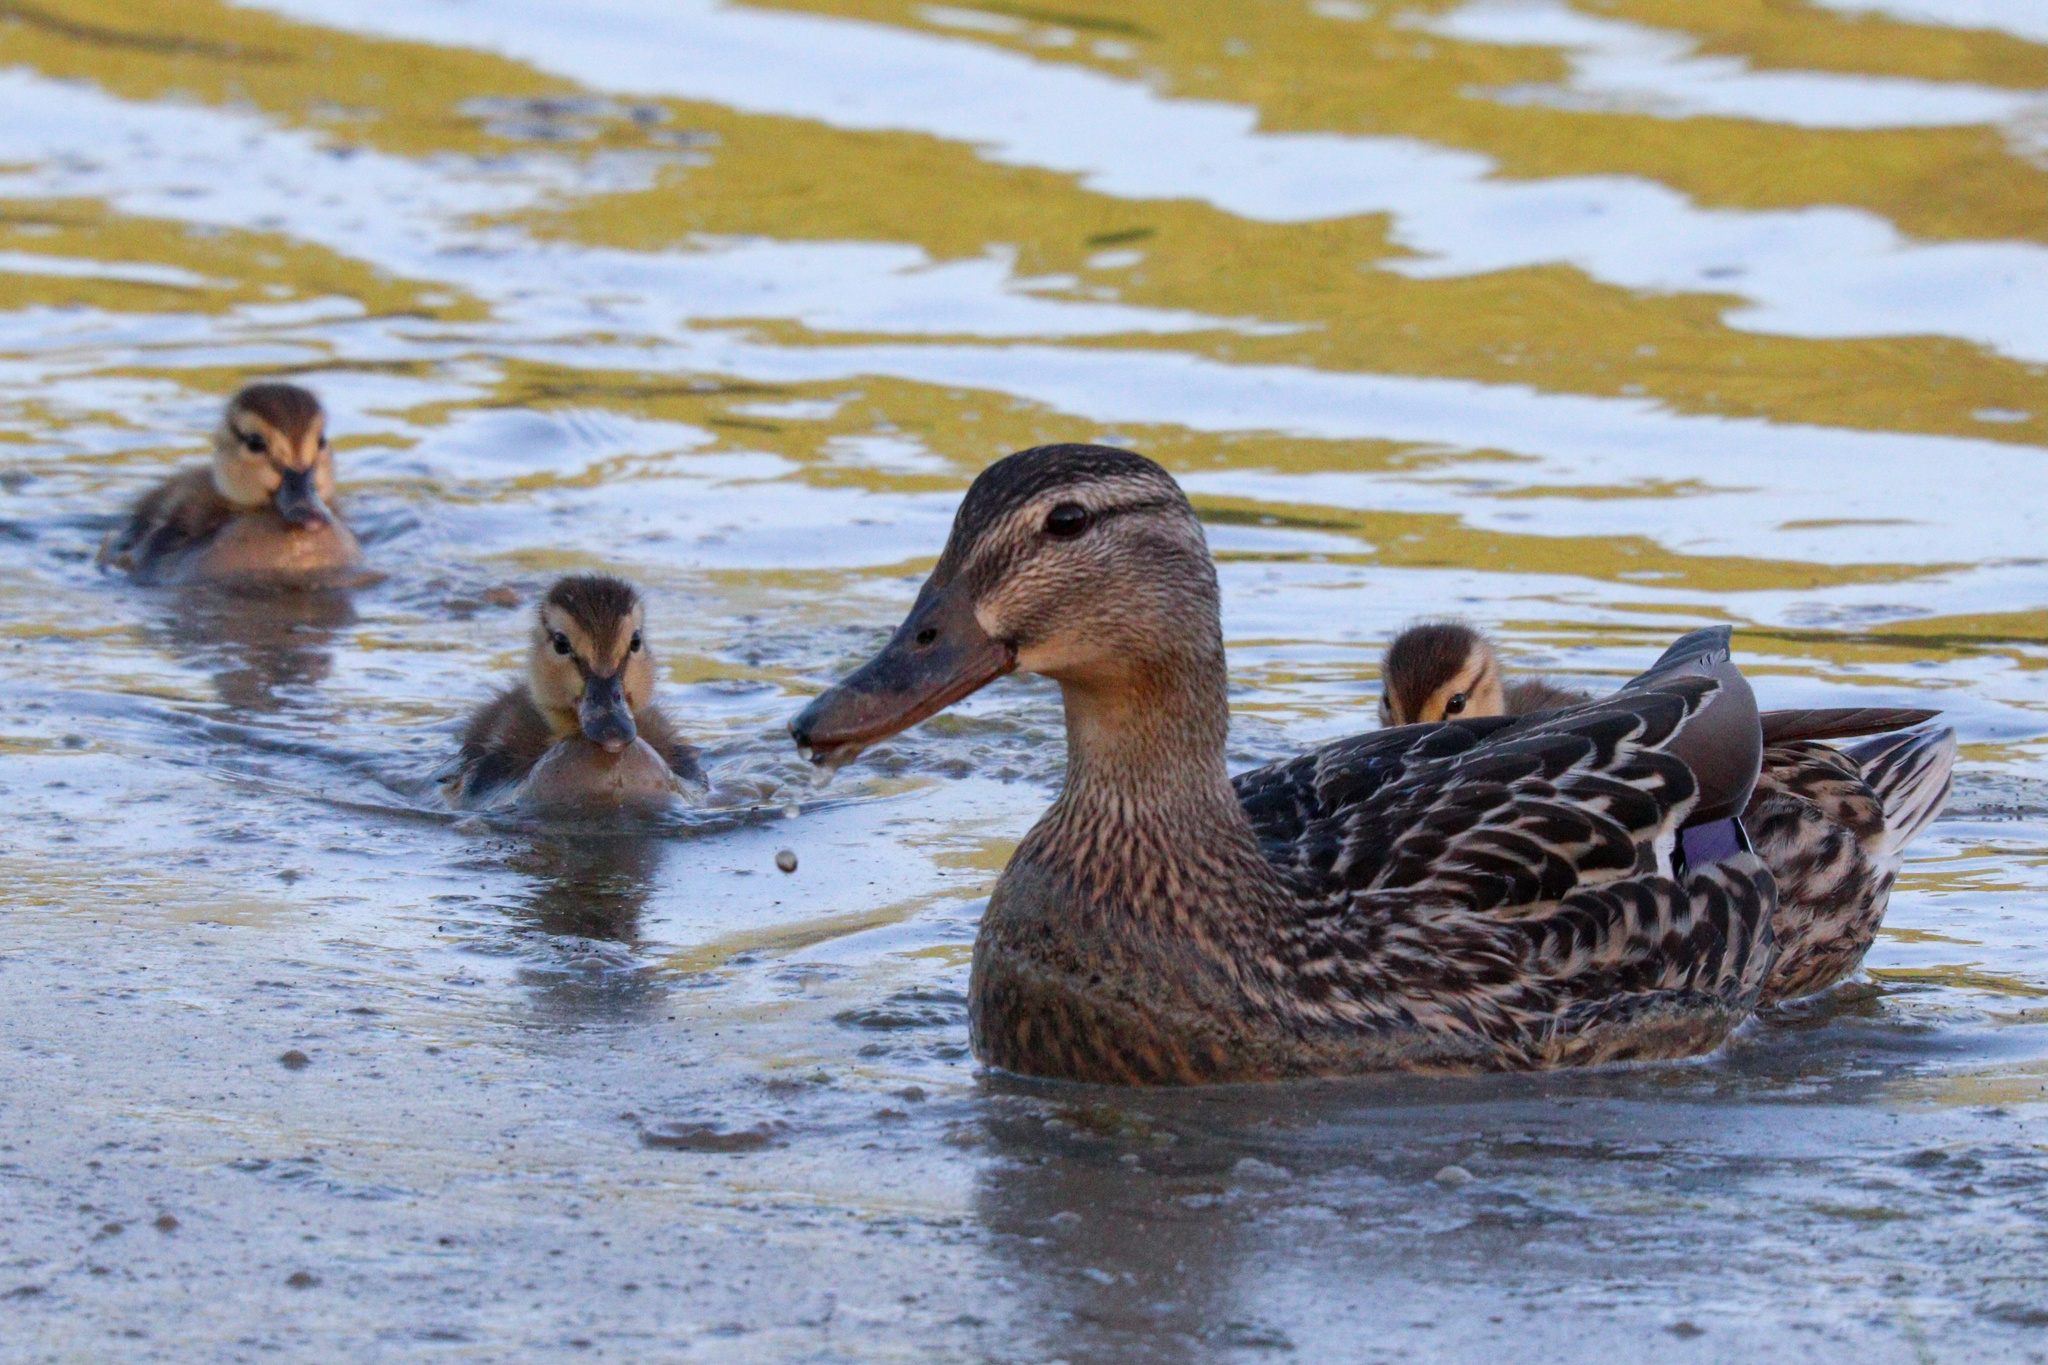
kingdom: Animalia
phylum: Chordata
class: Aves
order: Anseriformes
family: Anatidae
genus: Anas
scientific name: Anas platyrhynchos
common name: Mallard
